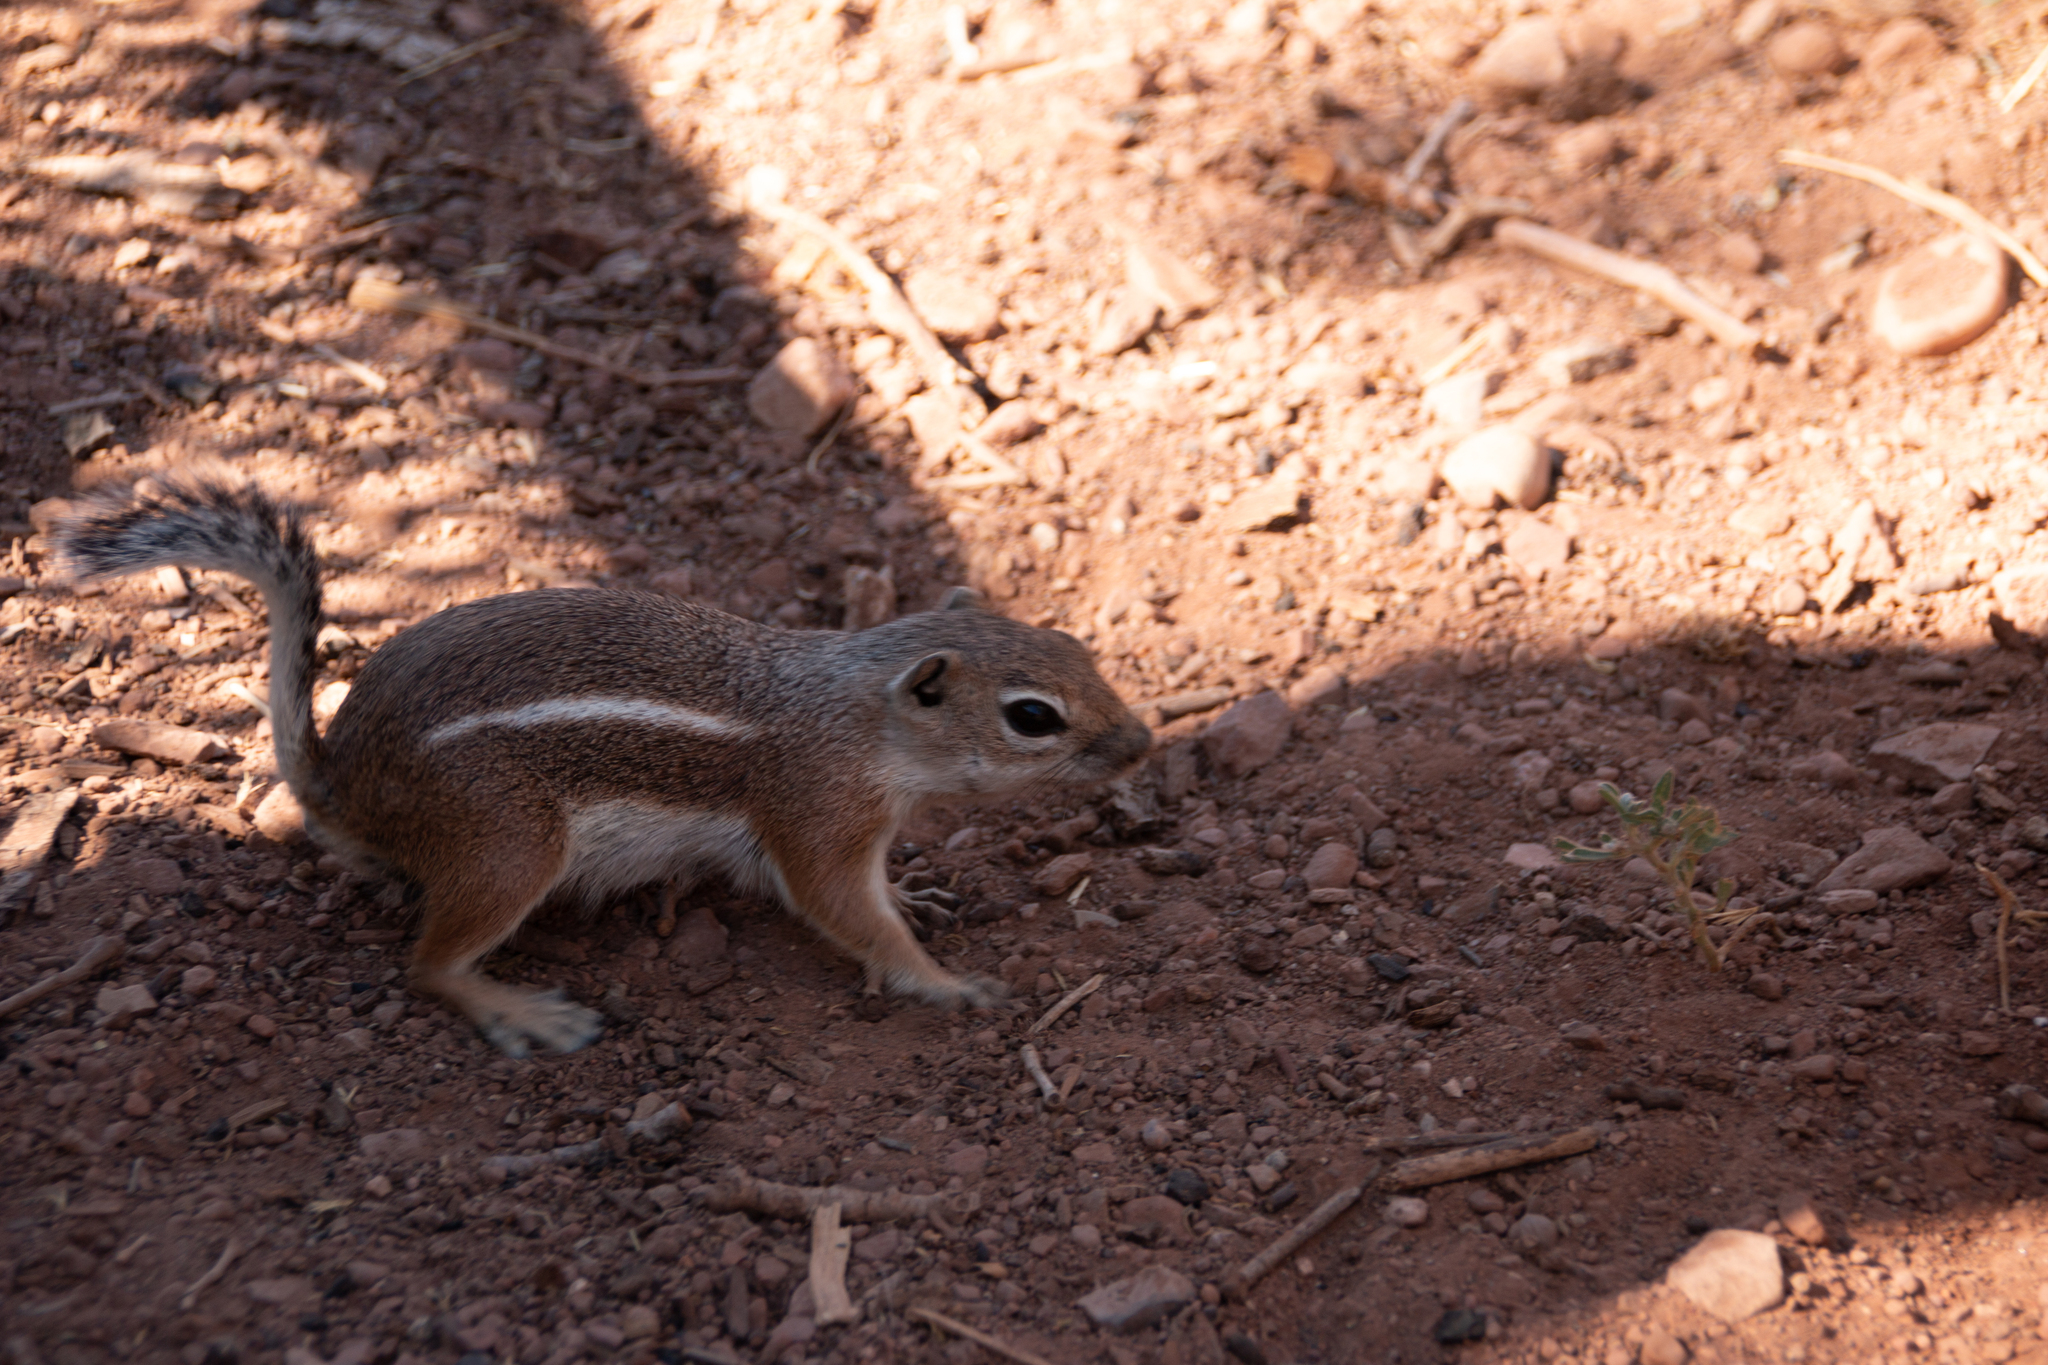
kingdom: Animalia
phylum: Chordata
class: Mammalia
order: Rodentia
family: Sciuridae
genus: Ammospermophilus
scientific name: Ammospermophilus leucurus
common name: White-tailed antelope squirrel
